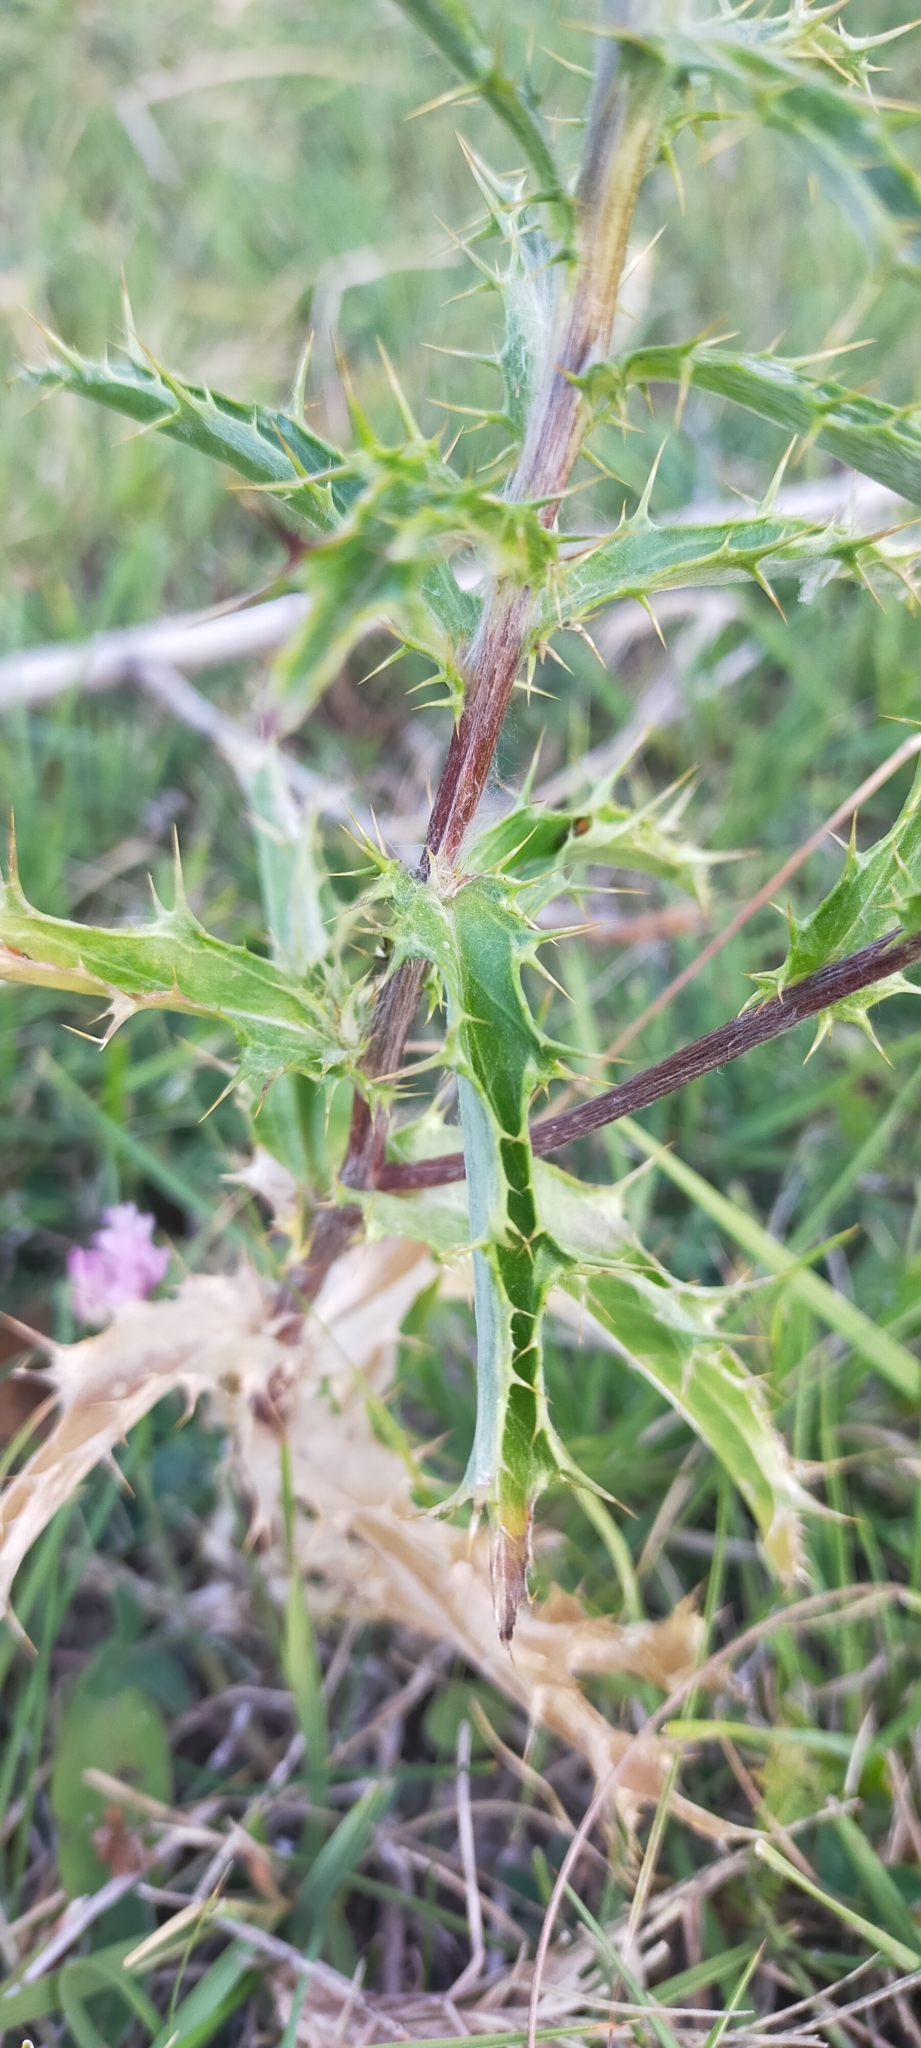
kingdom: Plantae
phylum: Tracheophyta
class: Magnoliopsida
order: Asterales
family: Asteraceae
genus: Carlina
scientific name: Carlina vulgaris
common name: Carline thistle
